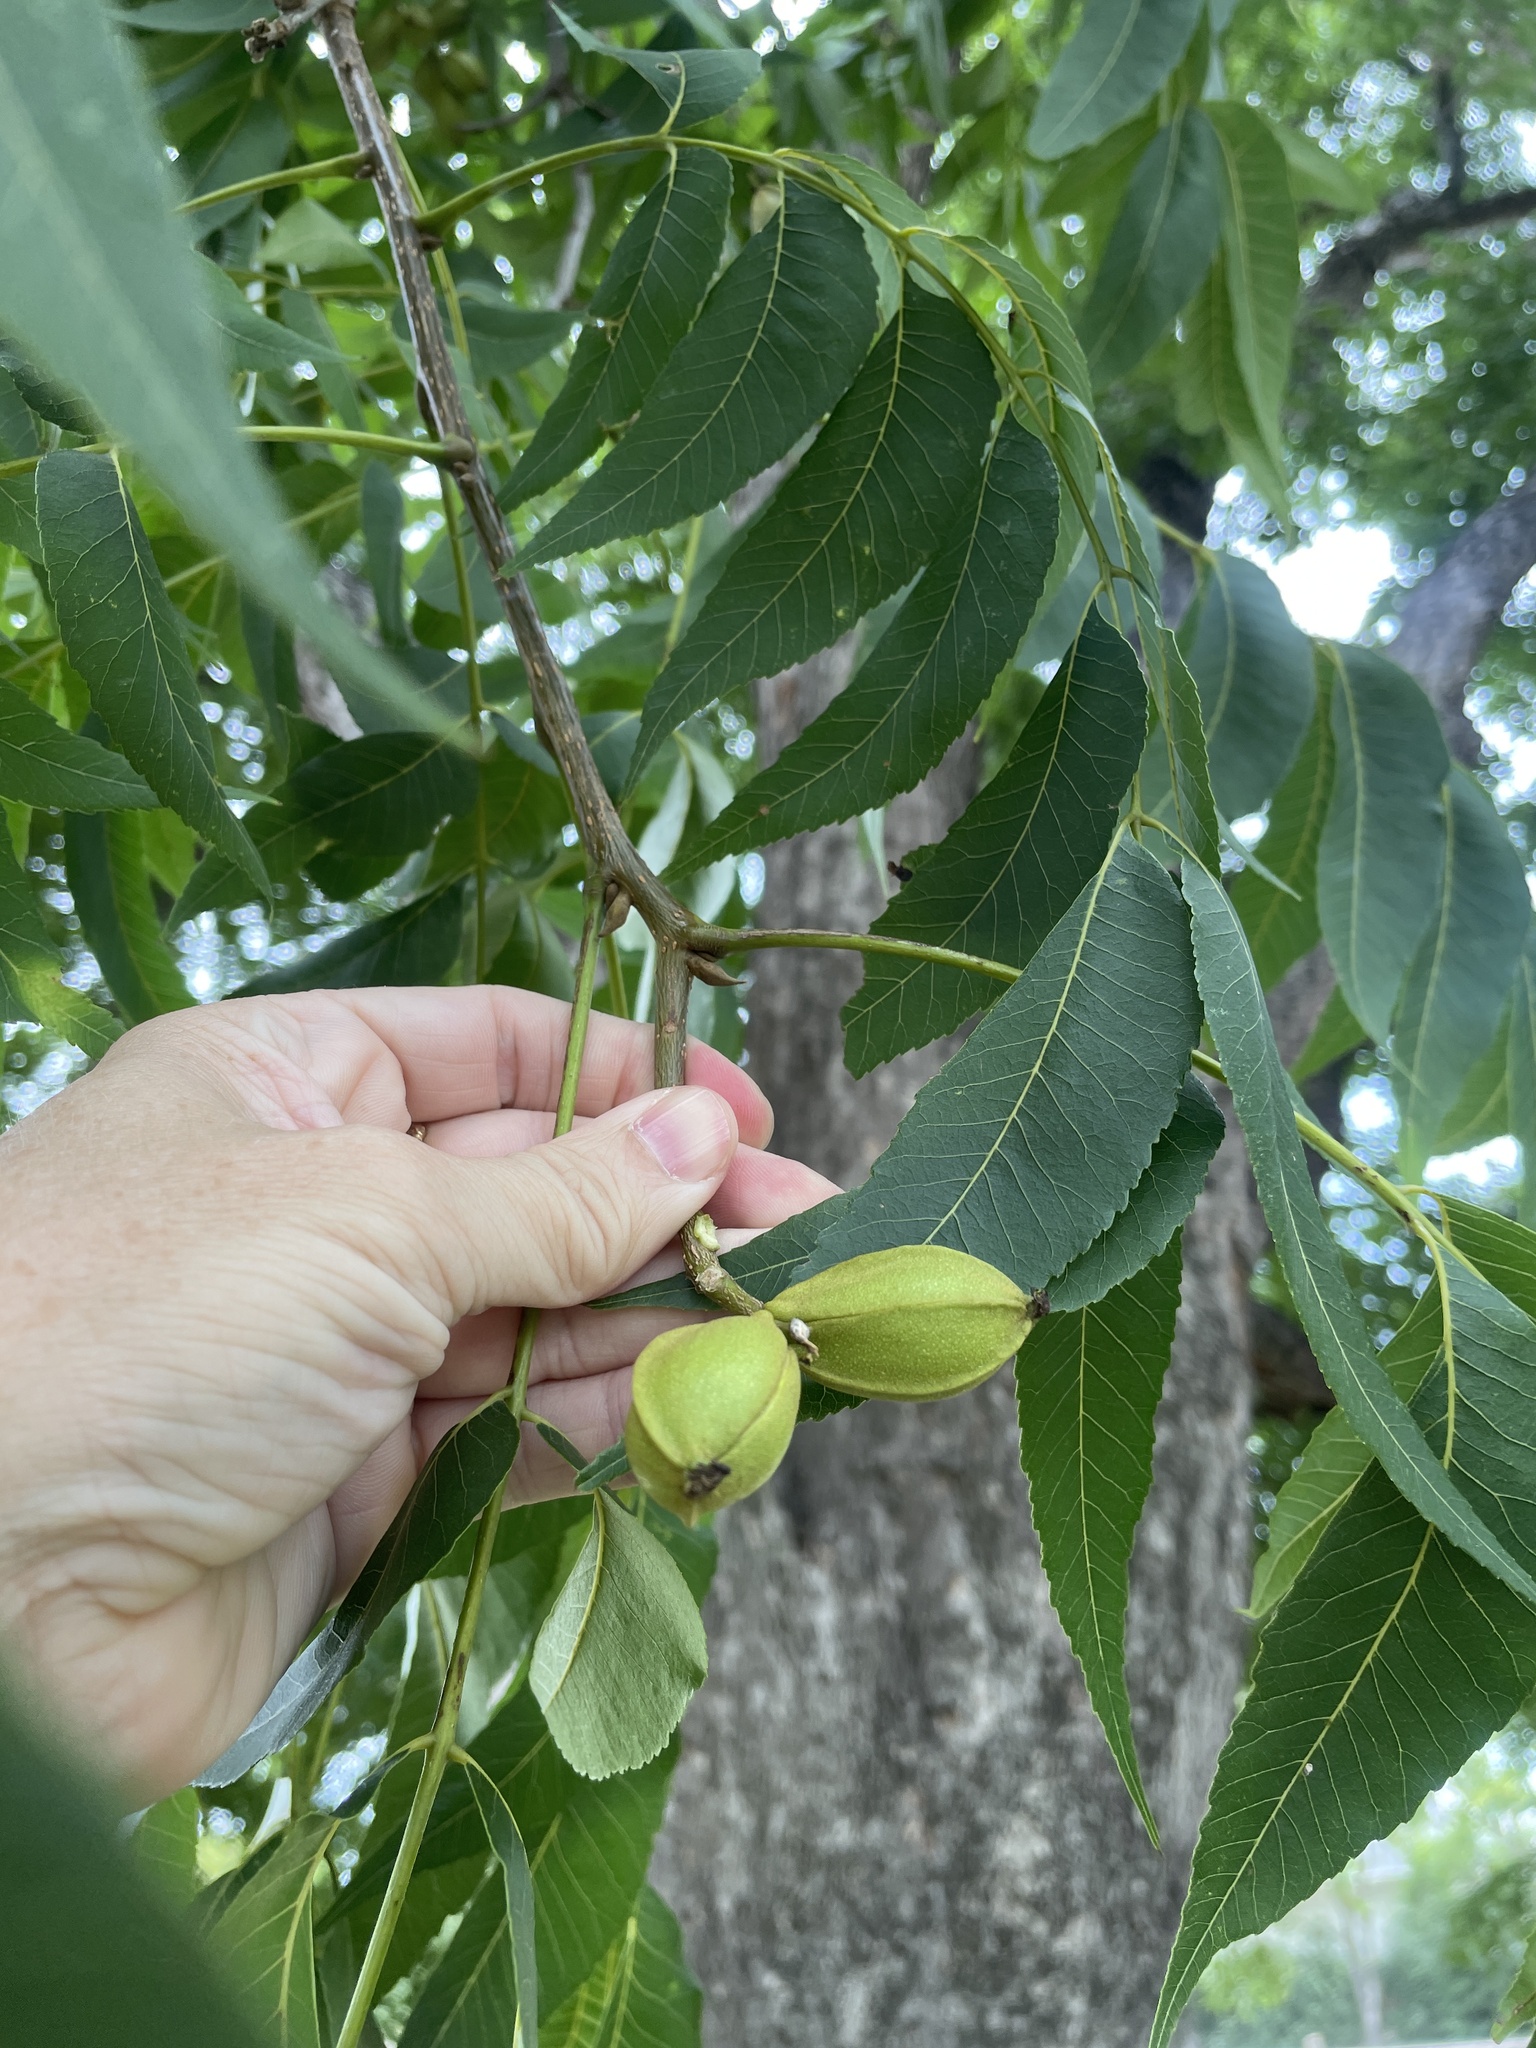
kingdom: Plantae
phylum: Tracheophyta
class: Magnoliopsida
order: Fagales
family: Juglandaceae
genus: Carya
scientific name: Carya illinoinensis
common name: Pecan
